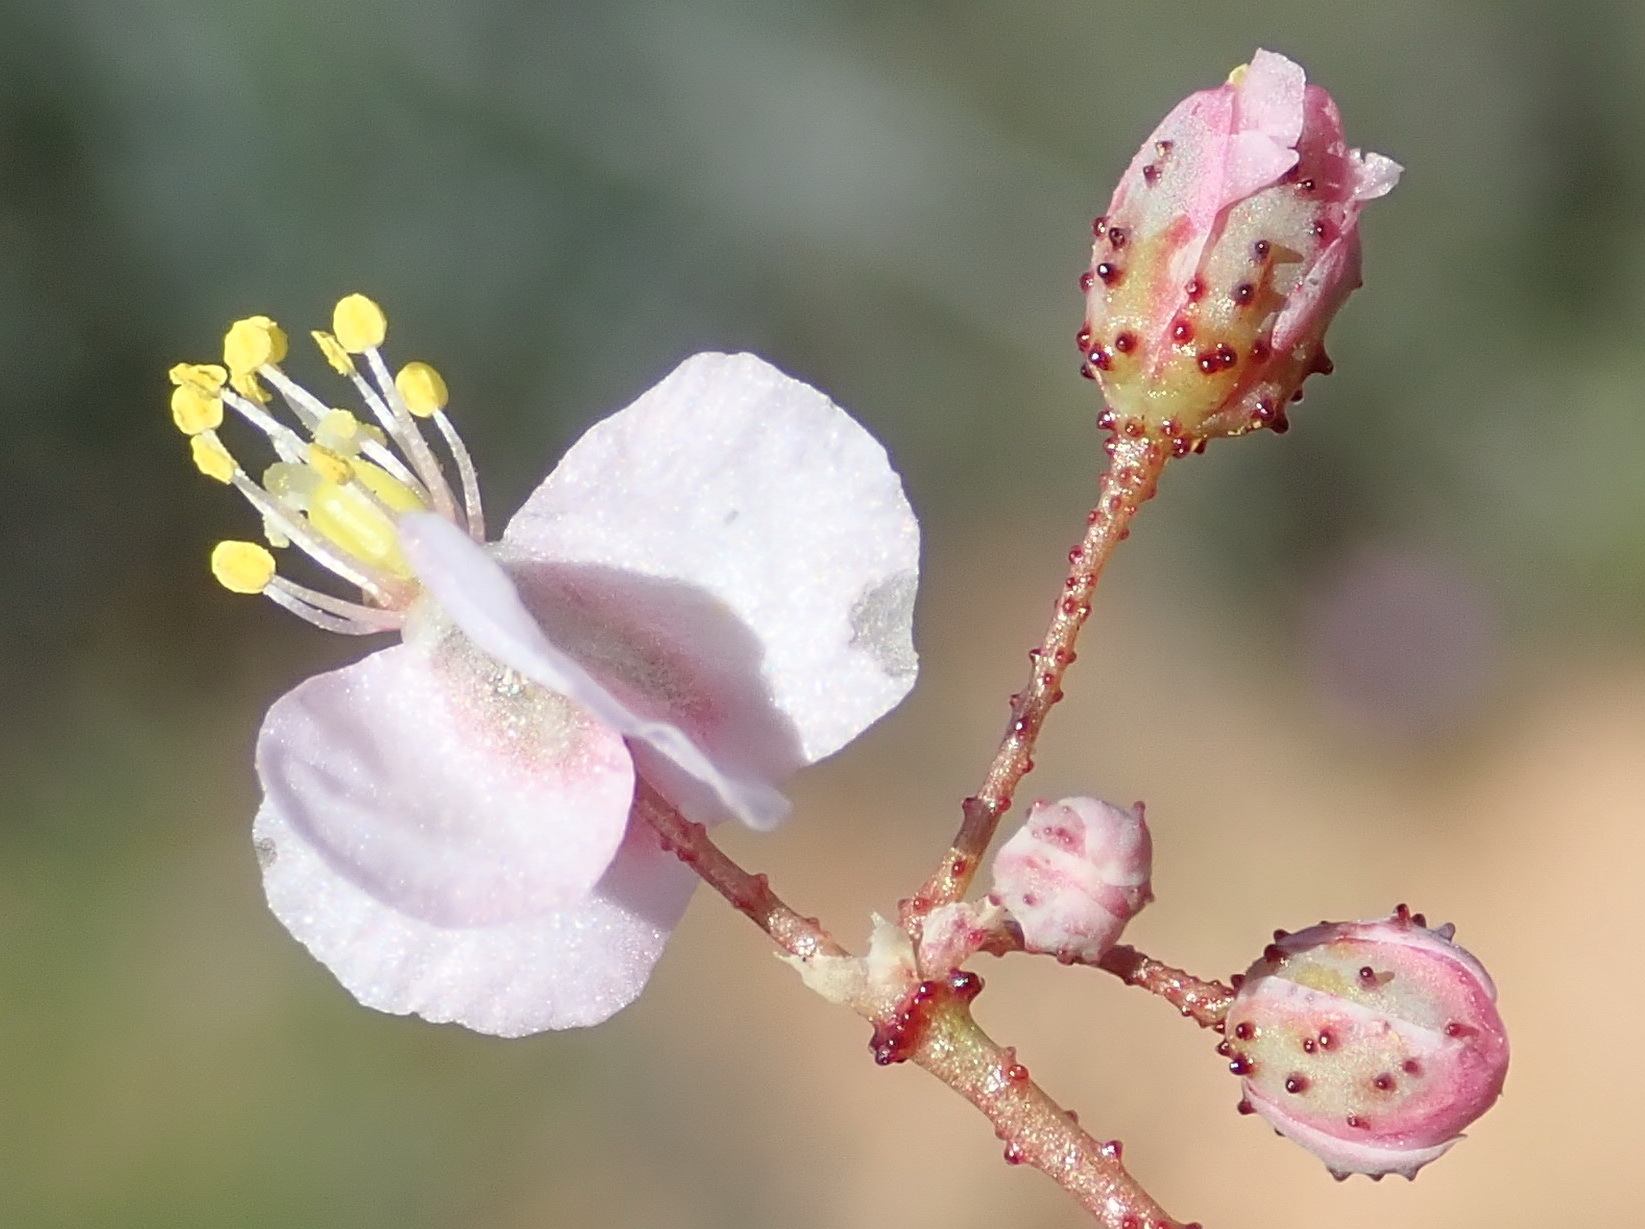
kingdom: Plantae
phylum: Tracheophyta
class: Magnoliopsida
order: Caryophyllales
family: Kewaceae
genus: Kewa
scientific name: Kewa salsoloides
